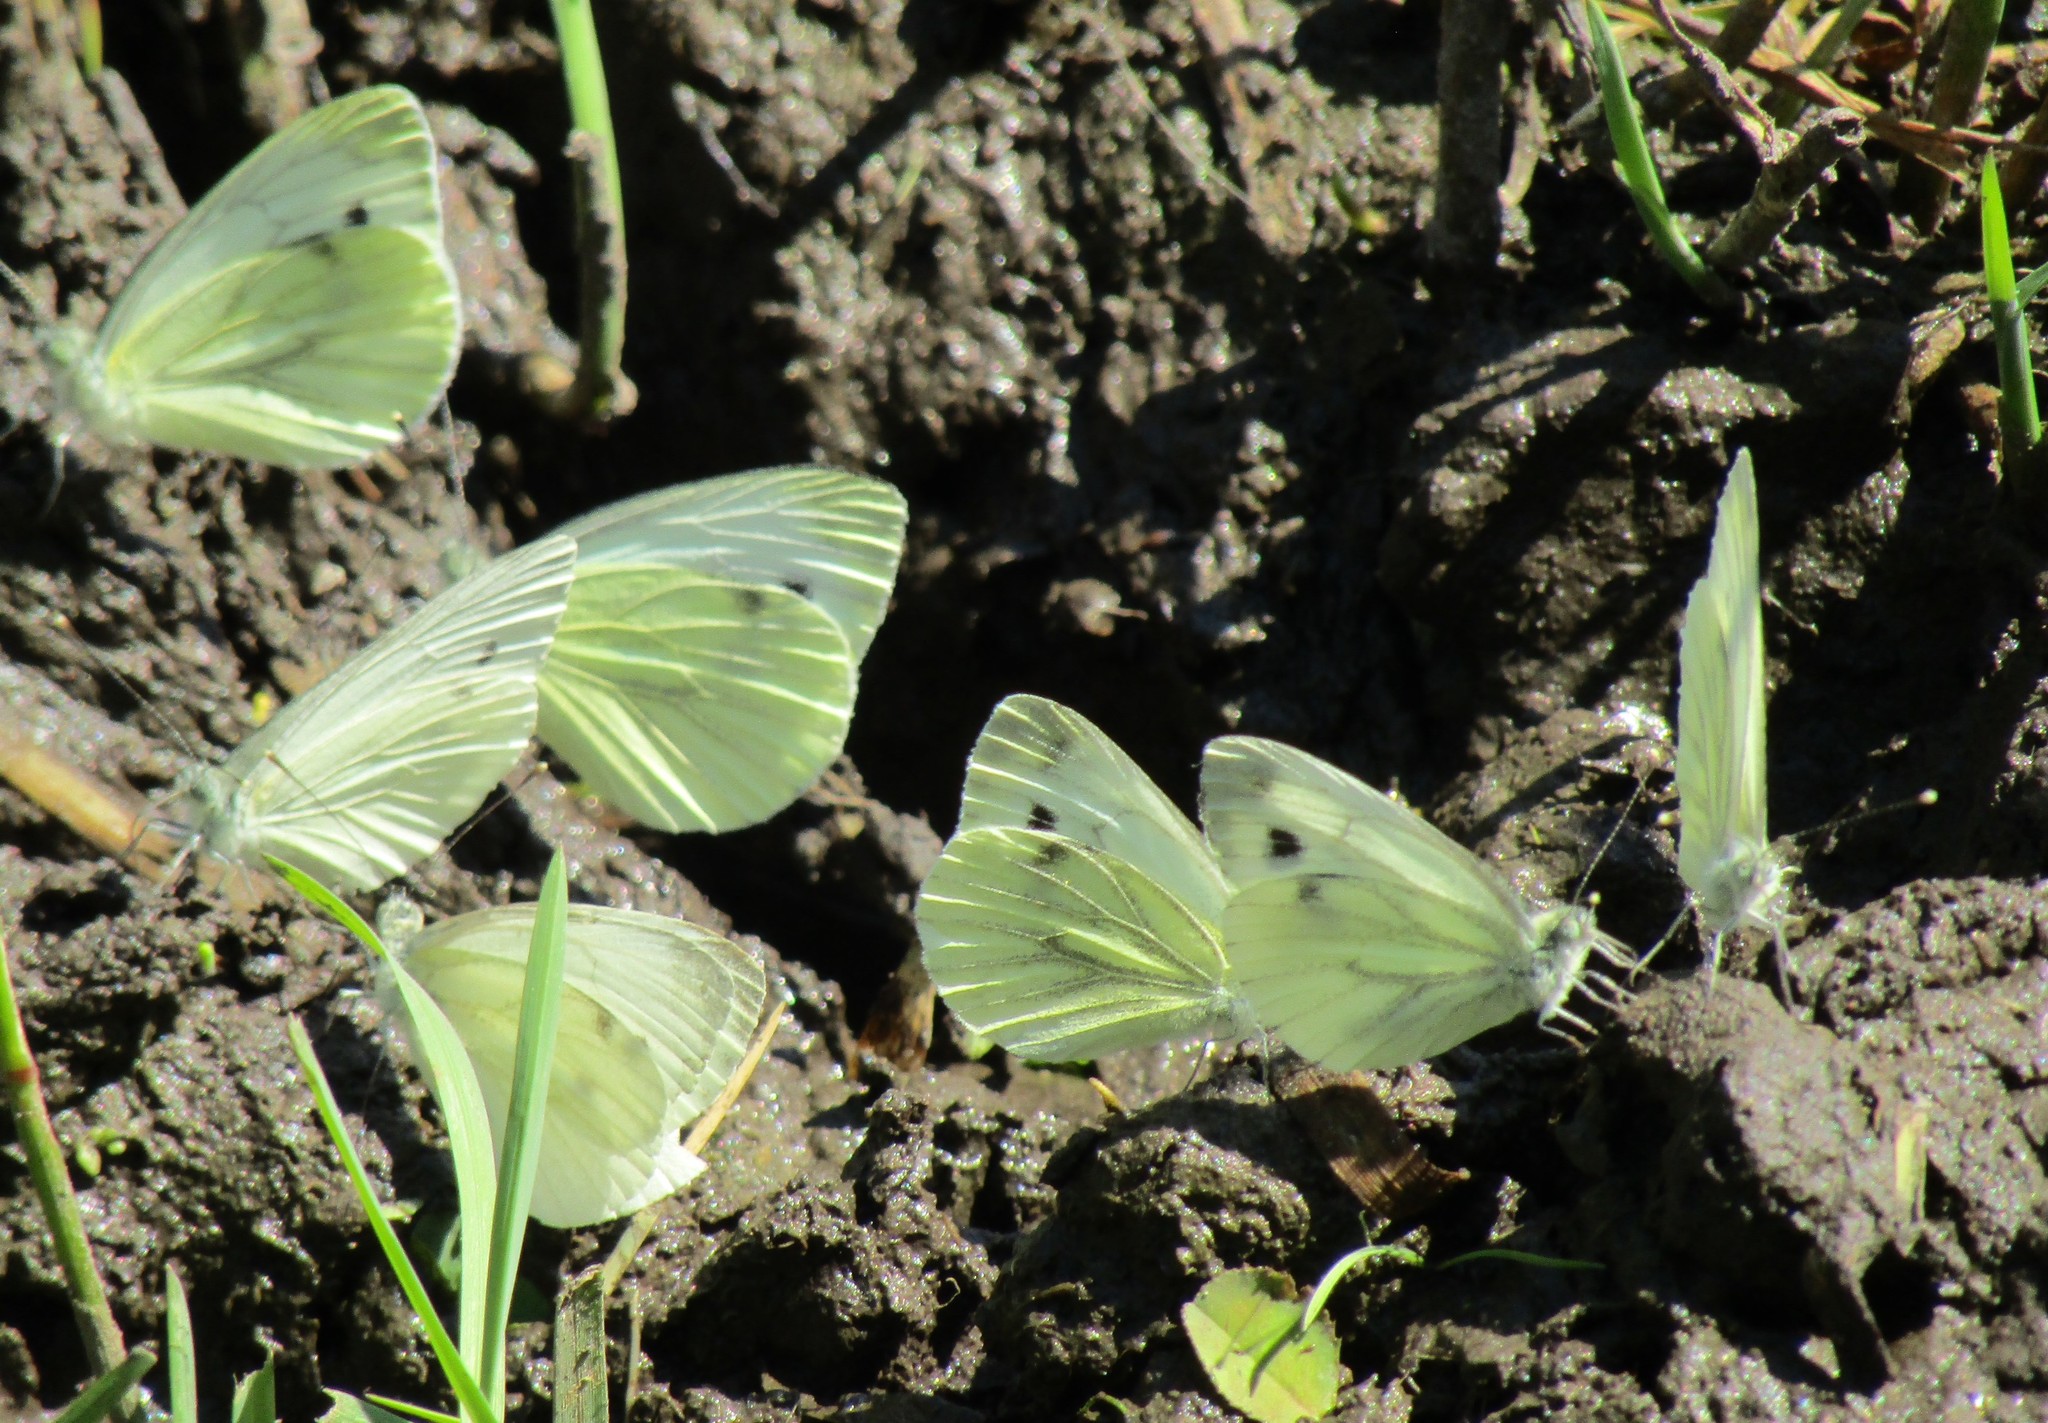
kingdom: Animalia
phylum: Arthropoda
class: Insecta
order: Lepidoptera
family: Pieridae
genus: Pieris
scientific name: Pieris napi
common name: Green-veined white
